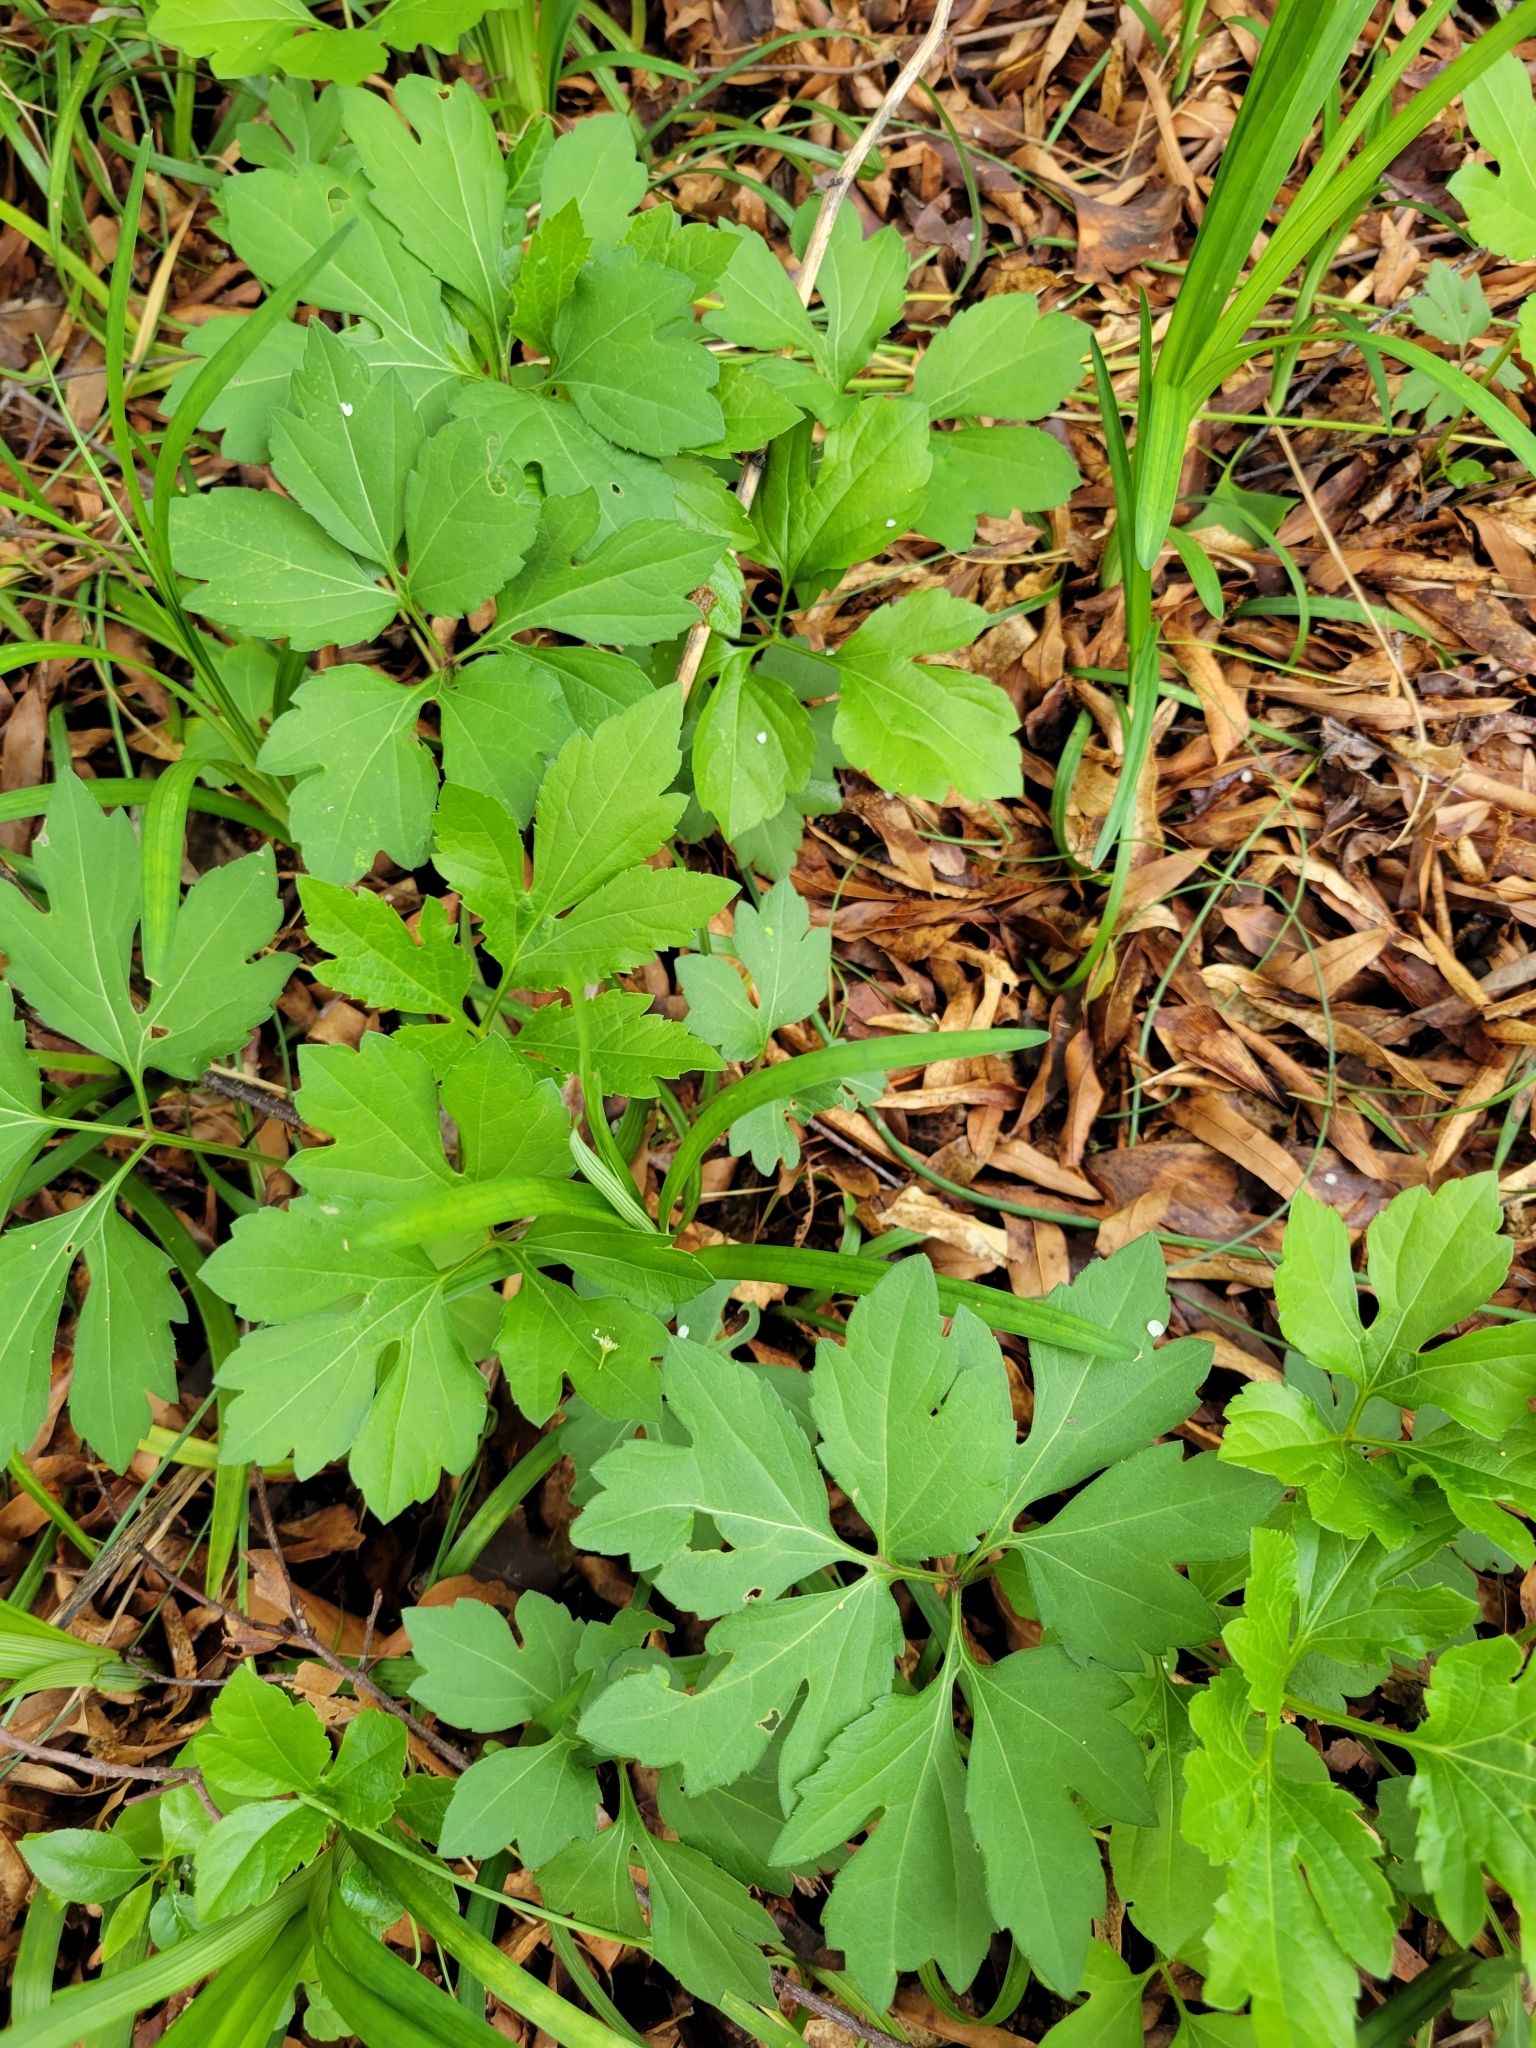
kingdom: Plantae
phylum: Tracheophyta
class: Magnoliopsida
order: Asterales
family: Asteraceae
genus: Rudbeckia
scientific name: Rudbeckia laciniata
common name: Coneflower
